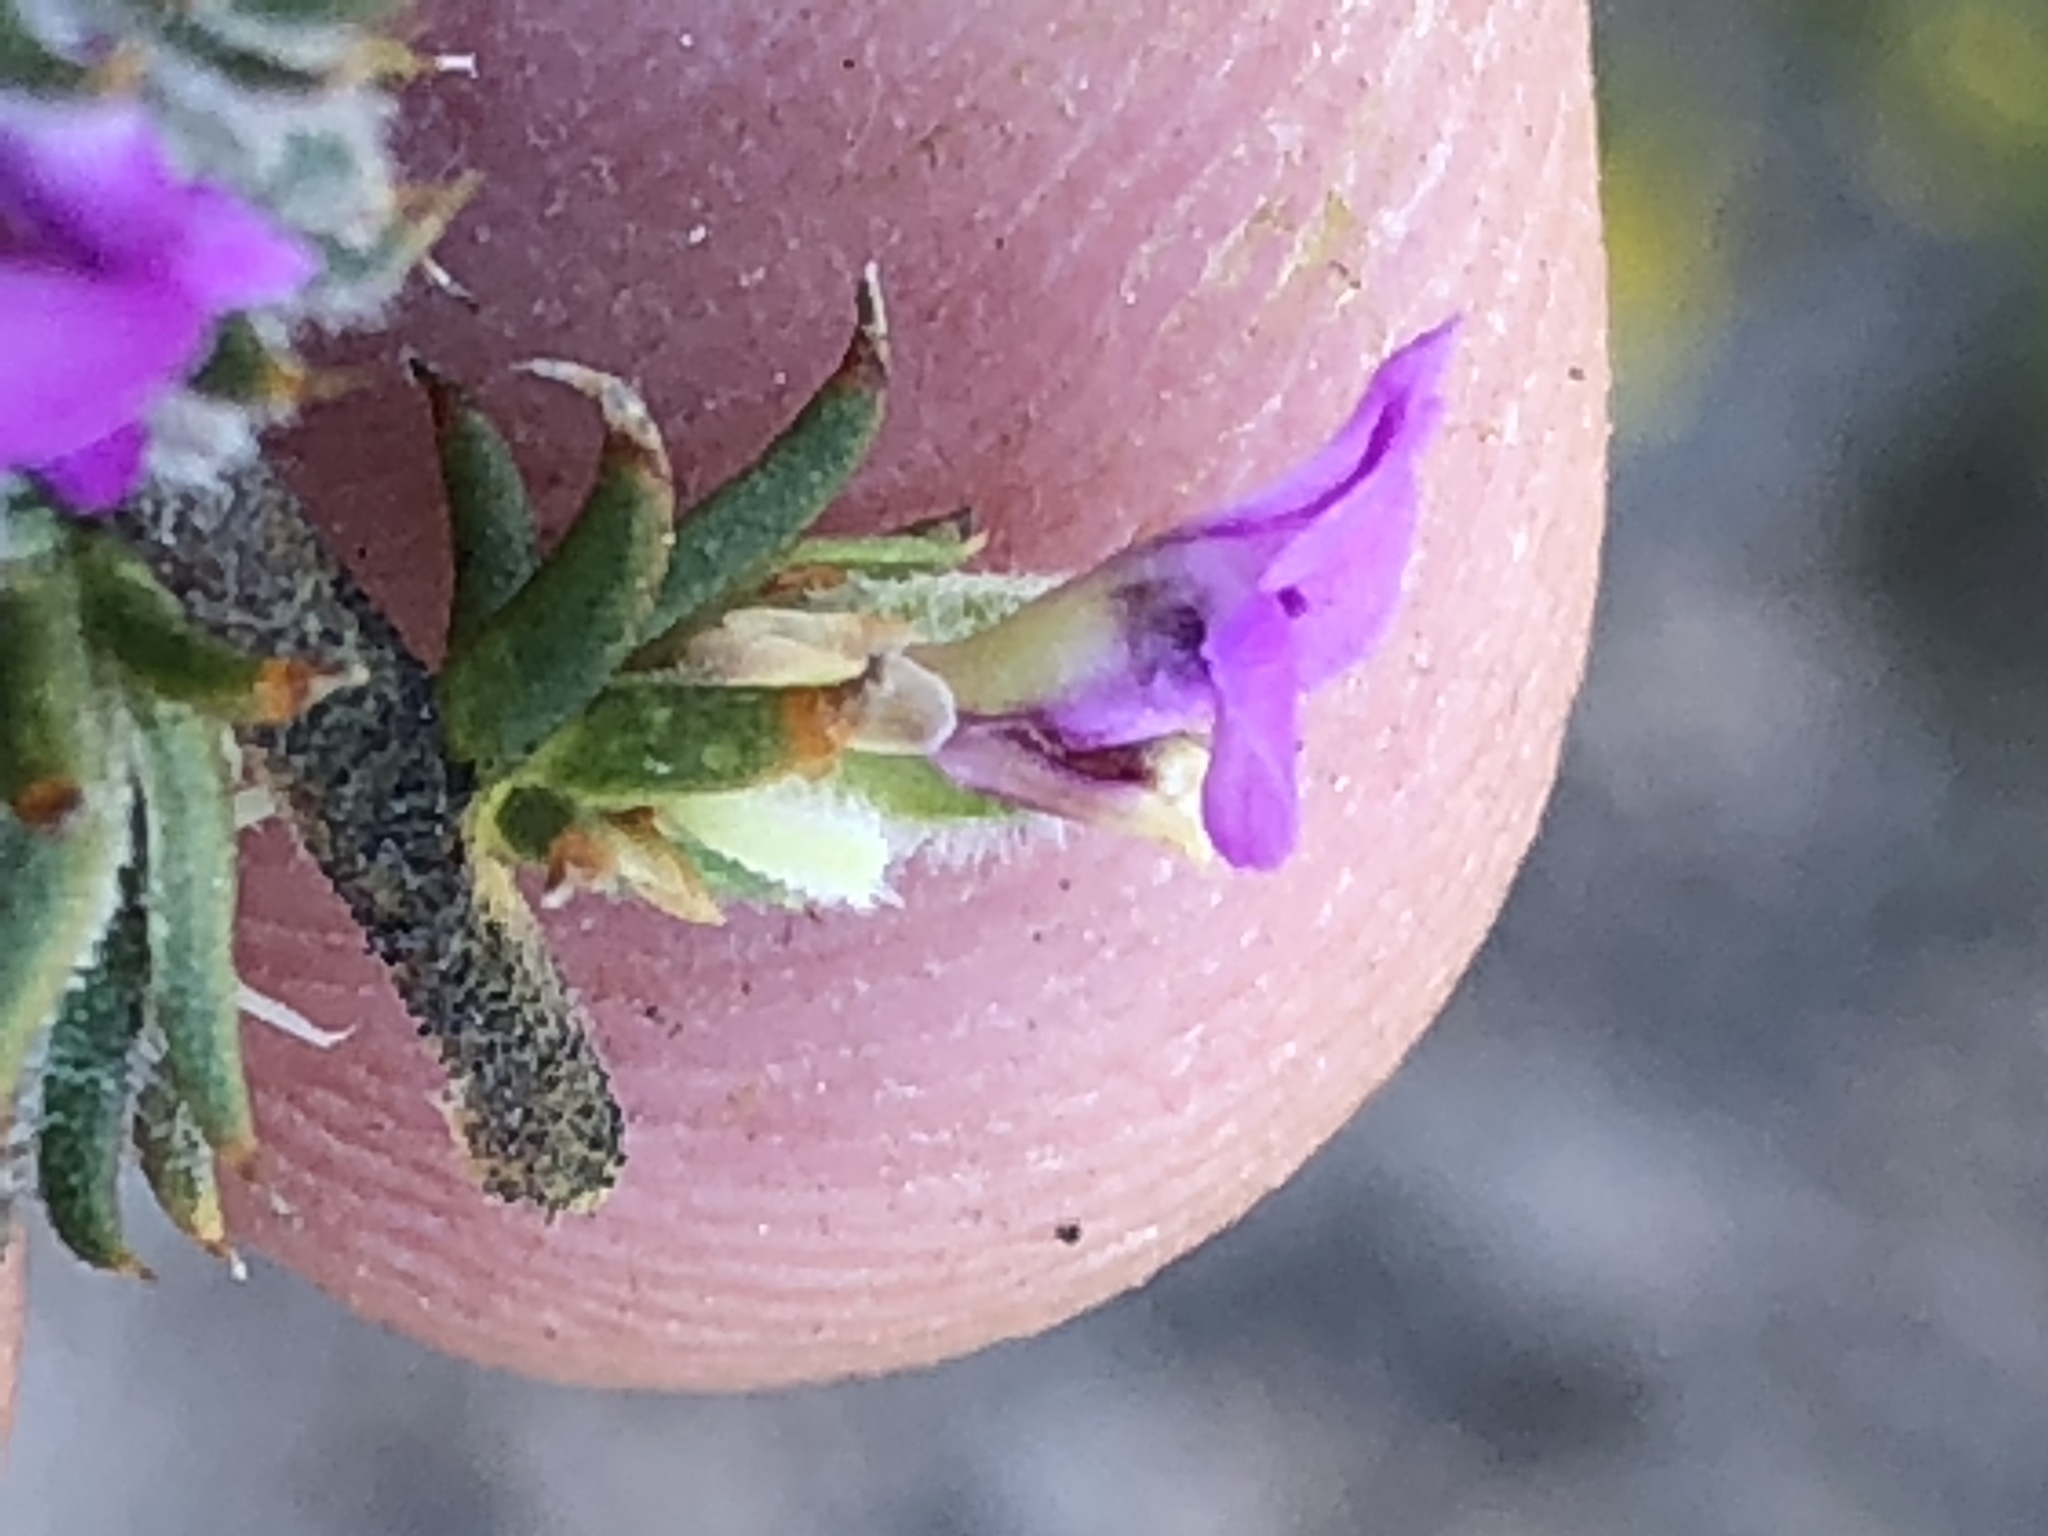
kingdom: Plantae
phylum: Tracheophyta
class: Magnoliopsida
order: Fabales
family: Polygalaceae
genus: Muraltia
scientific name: Muraltia squarrosa
